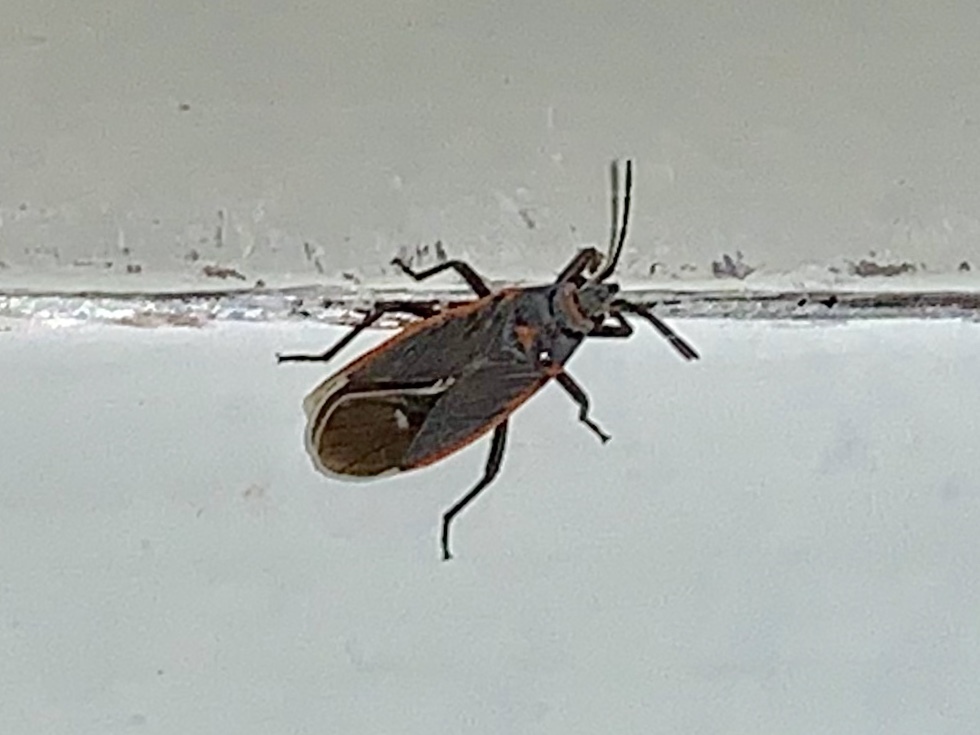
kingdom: Animalia
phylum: Arthropoda
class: Insecta
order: Hemiptera
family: Lygaeidae
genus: Melacoryphus
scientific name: Melacoryphus lateralis
